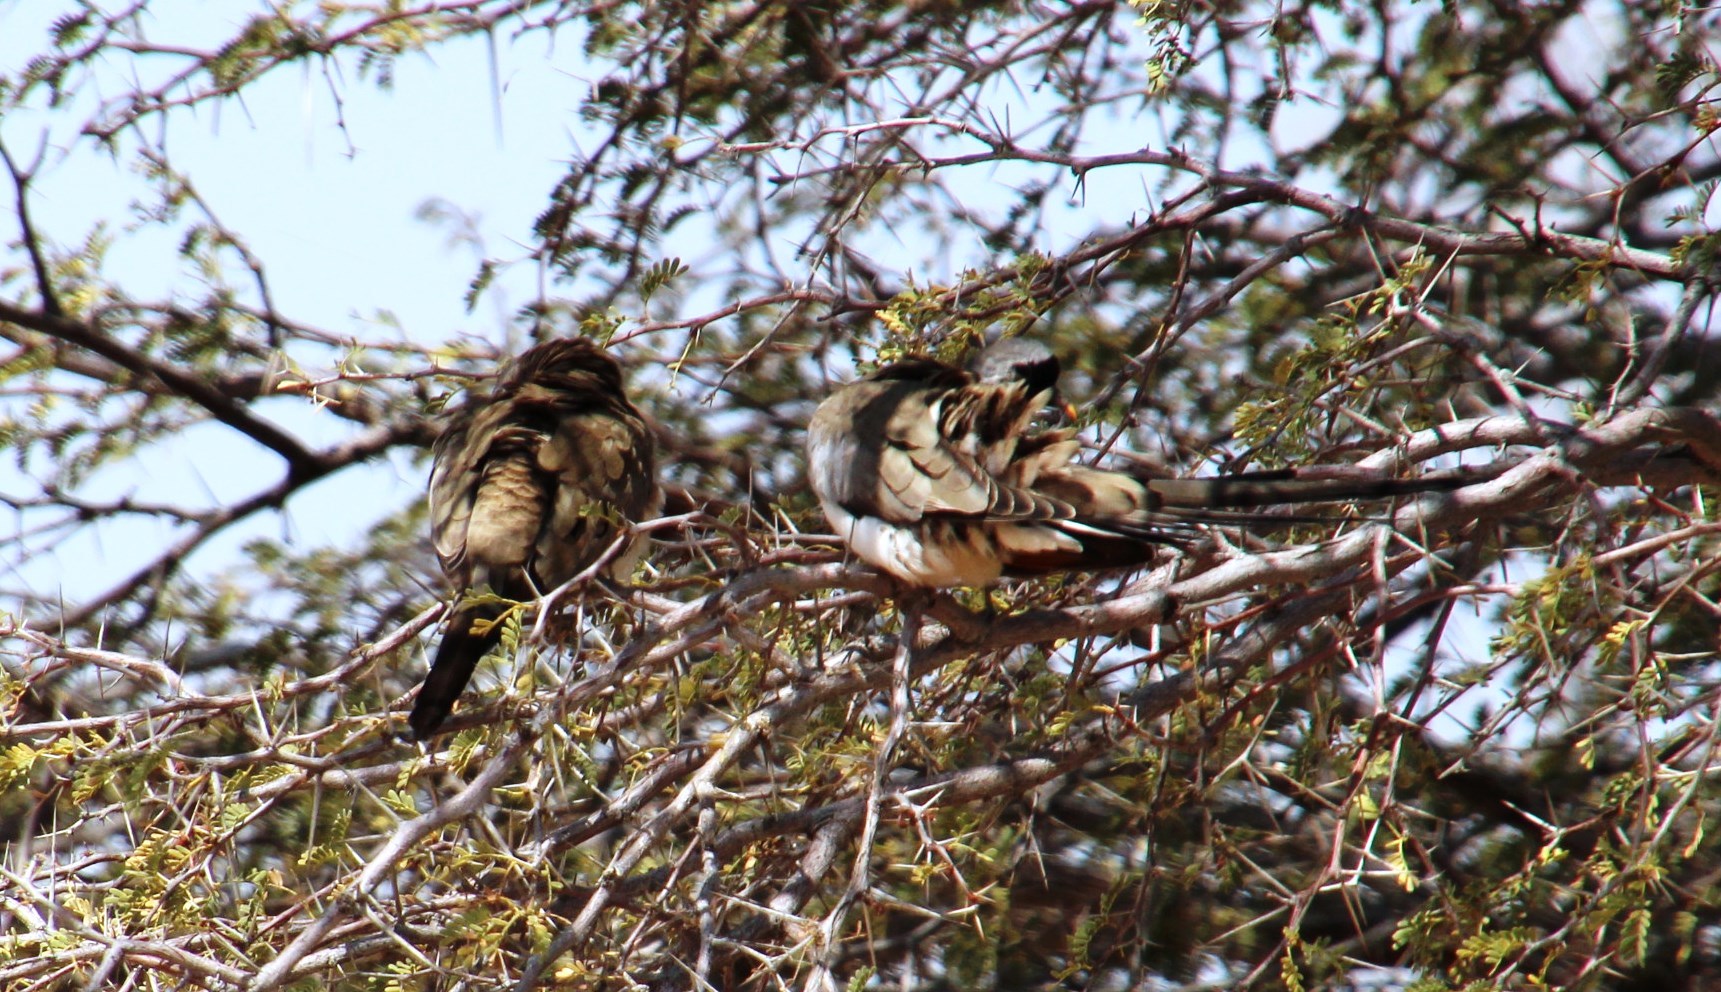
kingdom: Animalia
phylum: Chordata
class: Aves
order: Columbiformes
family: Columbidae
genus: Oena
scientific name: Oena capensis
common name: Namaqua dove
